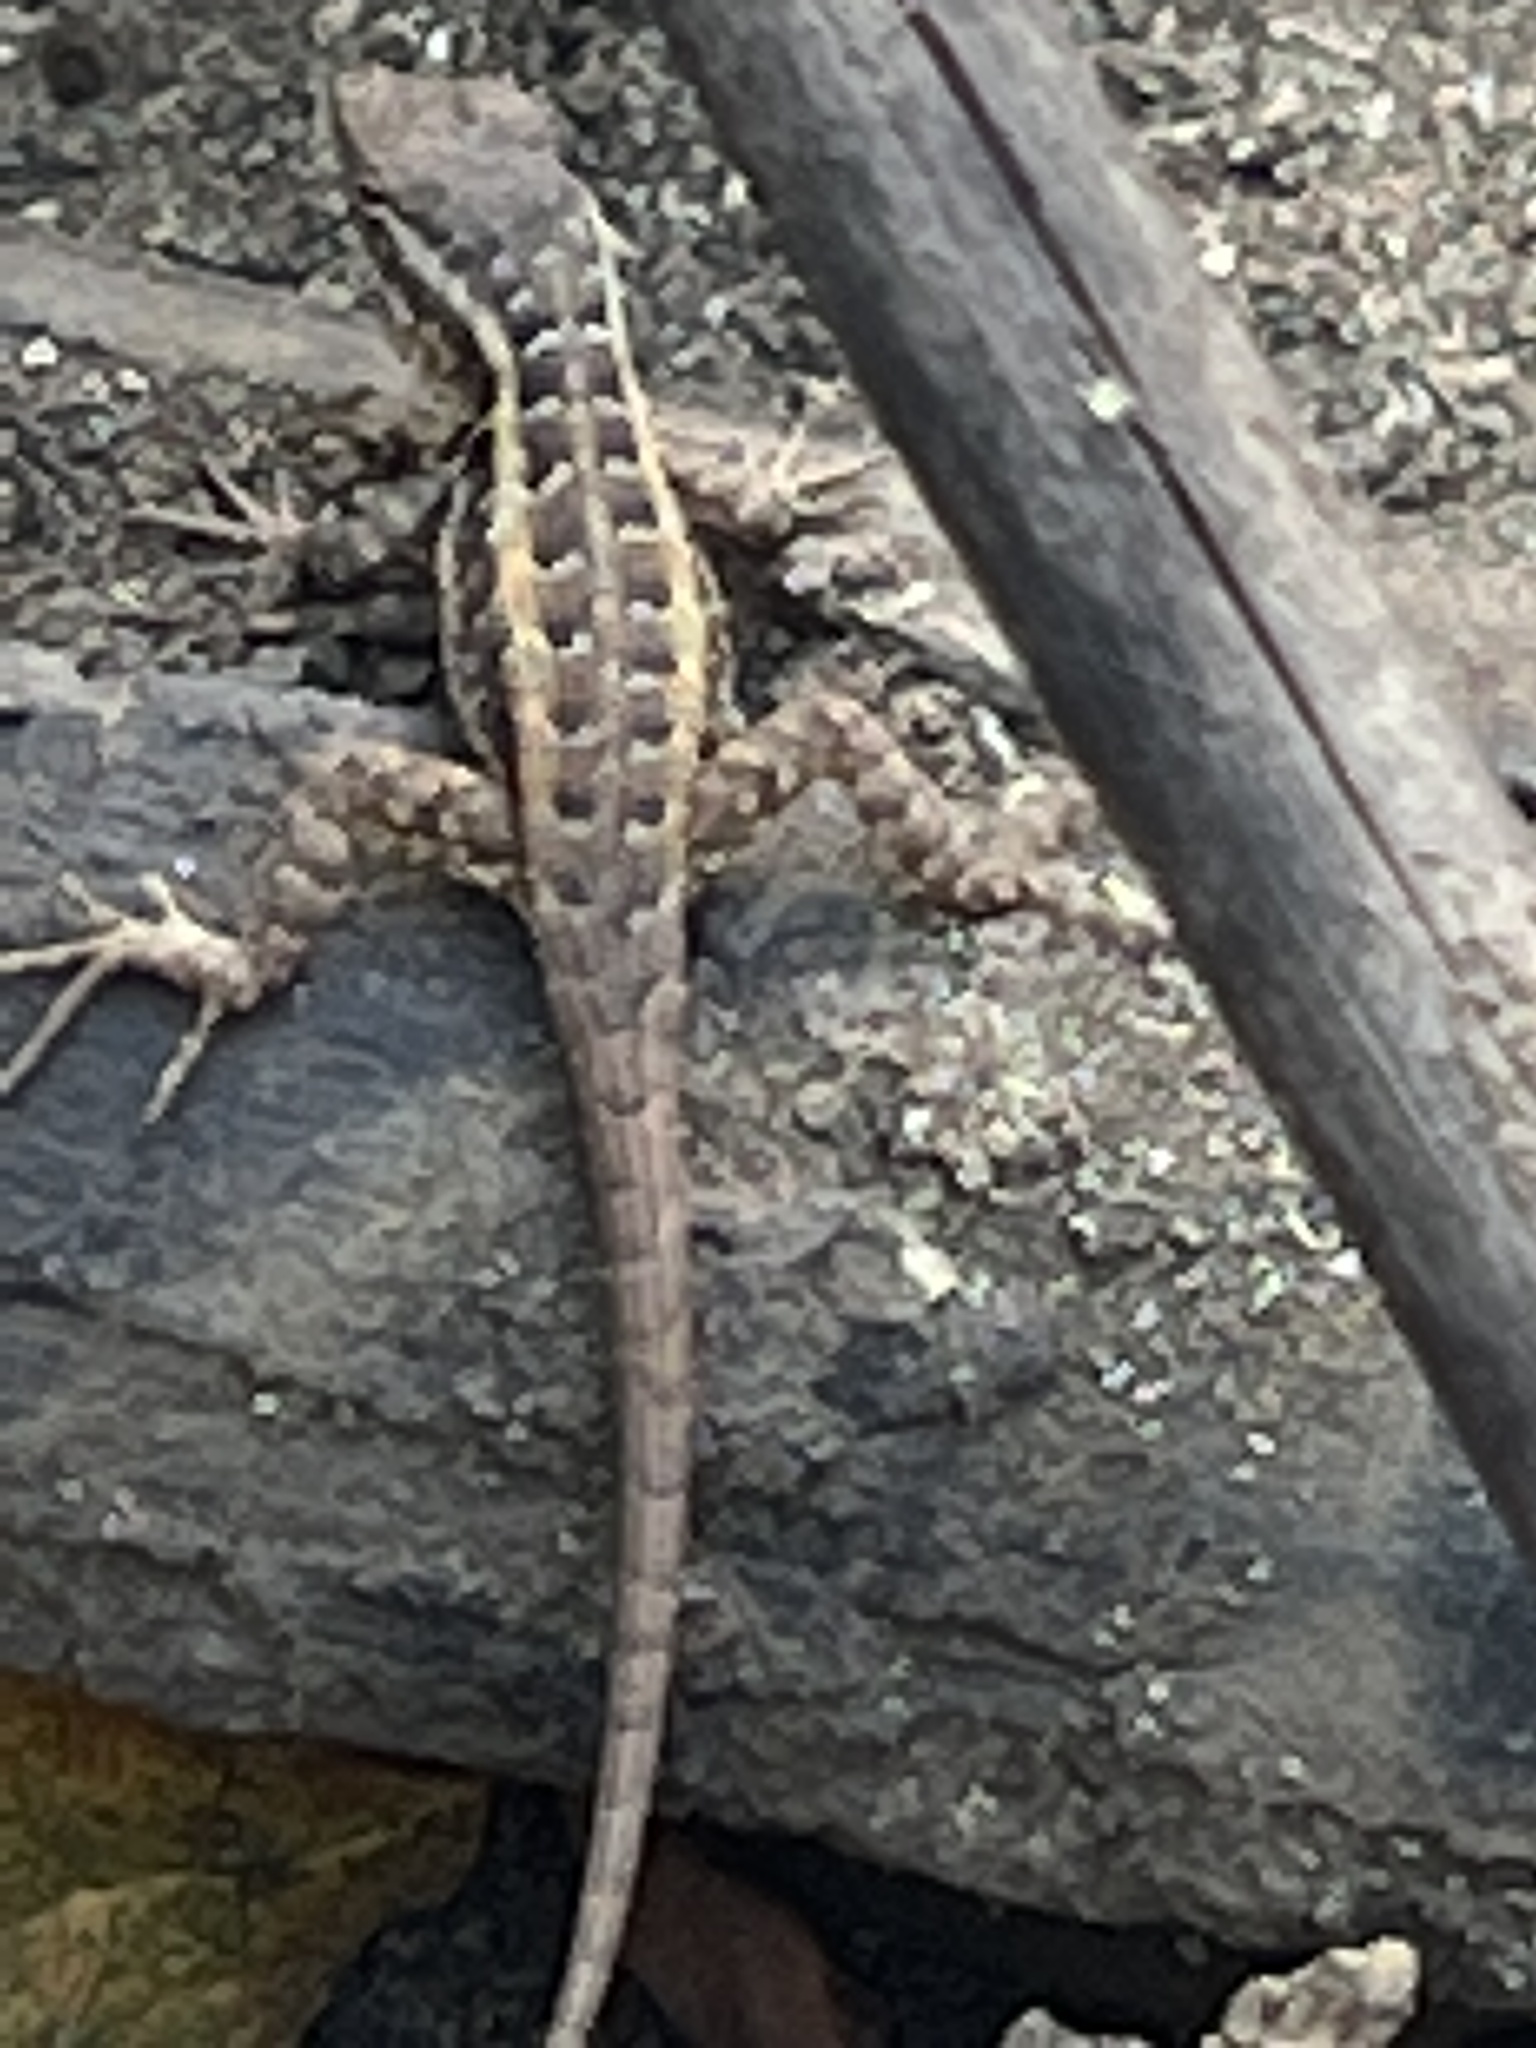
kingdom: Animalia
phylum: Chordata
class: Squamata
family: Phrynosomatidae
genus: Sceloporus
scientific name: Sceloporus variabilis
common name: Rosebelly lizard
